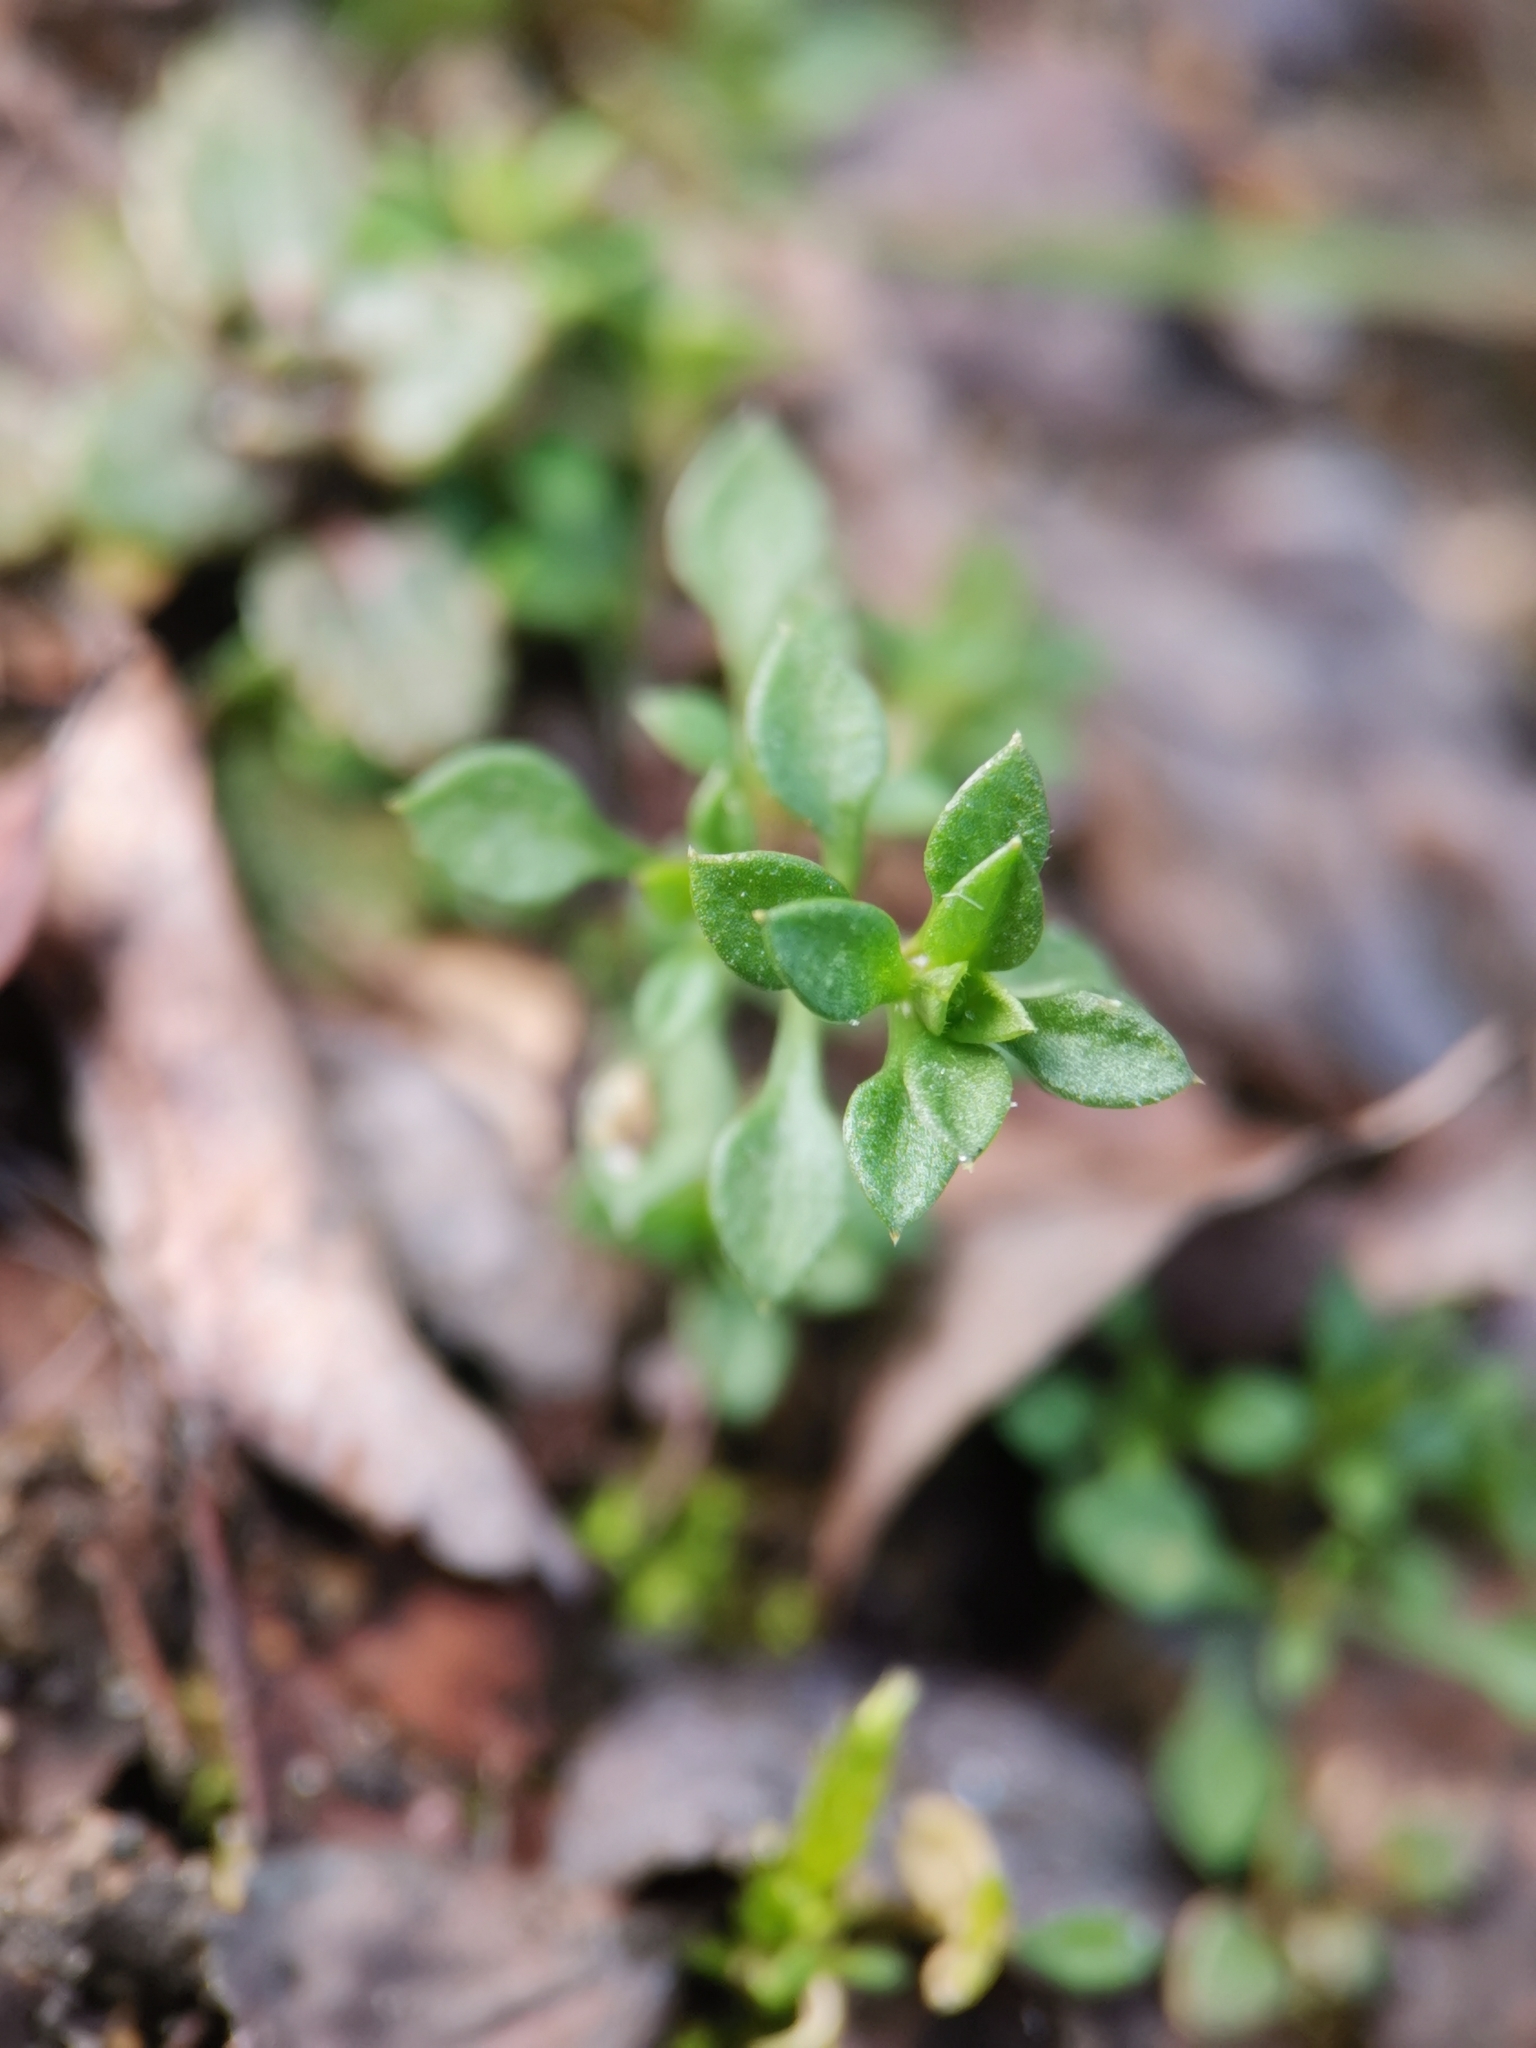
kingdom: Plantae
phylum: Tracheophyta
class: Magnoliopsida
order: Caryophyllales
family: Caryophyllaceae
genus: Arenaria
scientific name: Arenaria serpyllifolia
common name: Thyme-leaved sandwort
